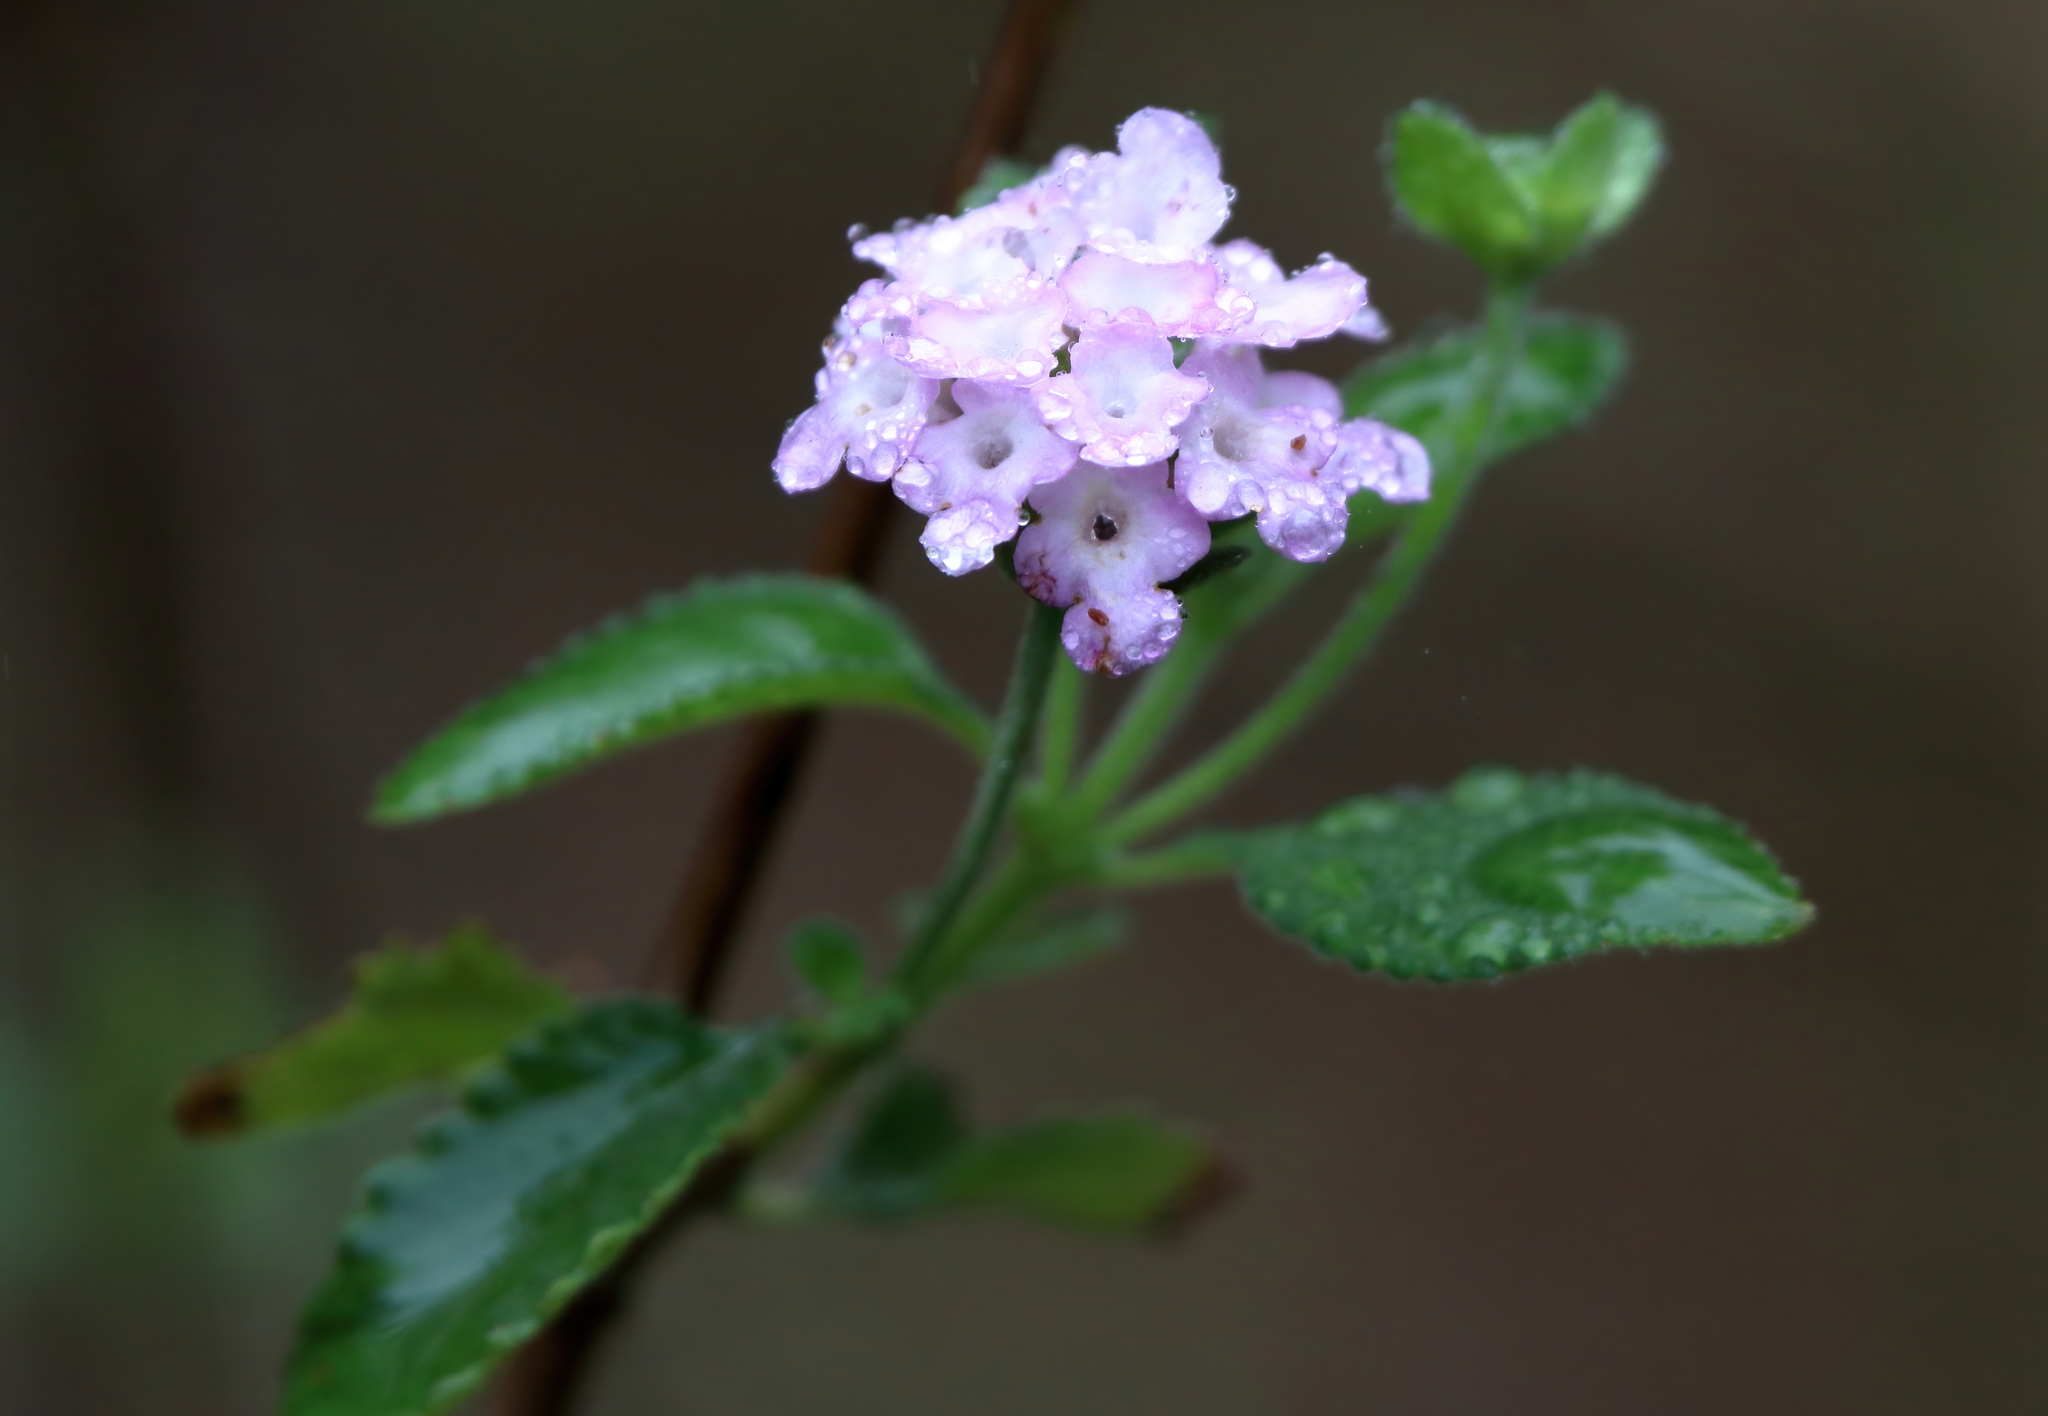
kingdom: Plantae
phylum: Tracheophyta
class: Magnoliopsida
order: Lamiales
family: Verbenaceae
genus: Lantana
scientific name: Lantana velutina
